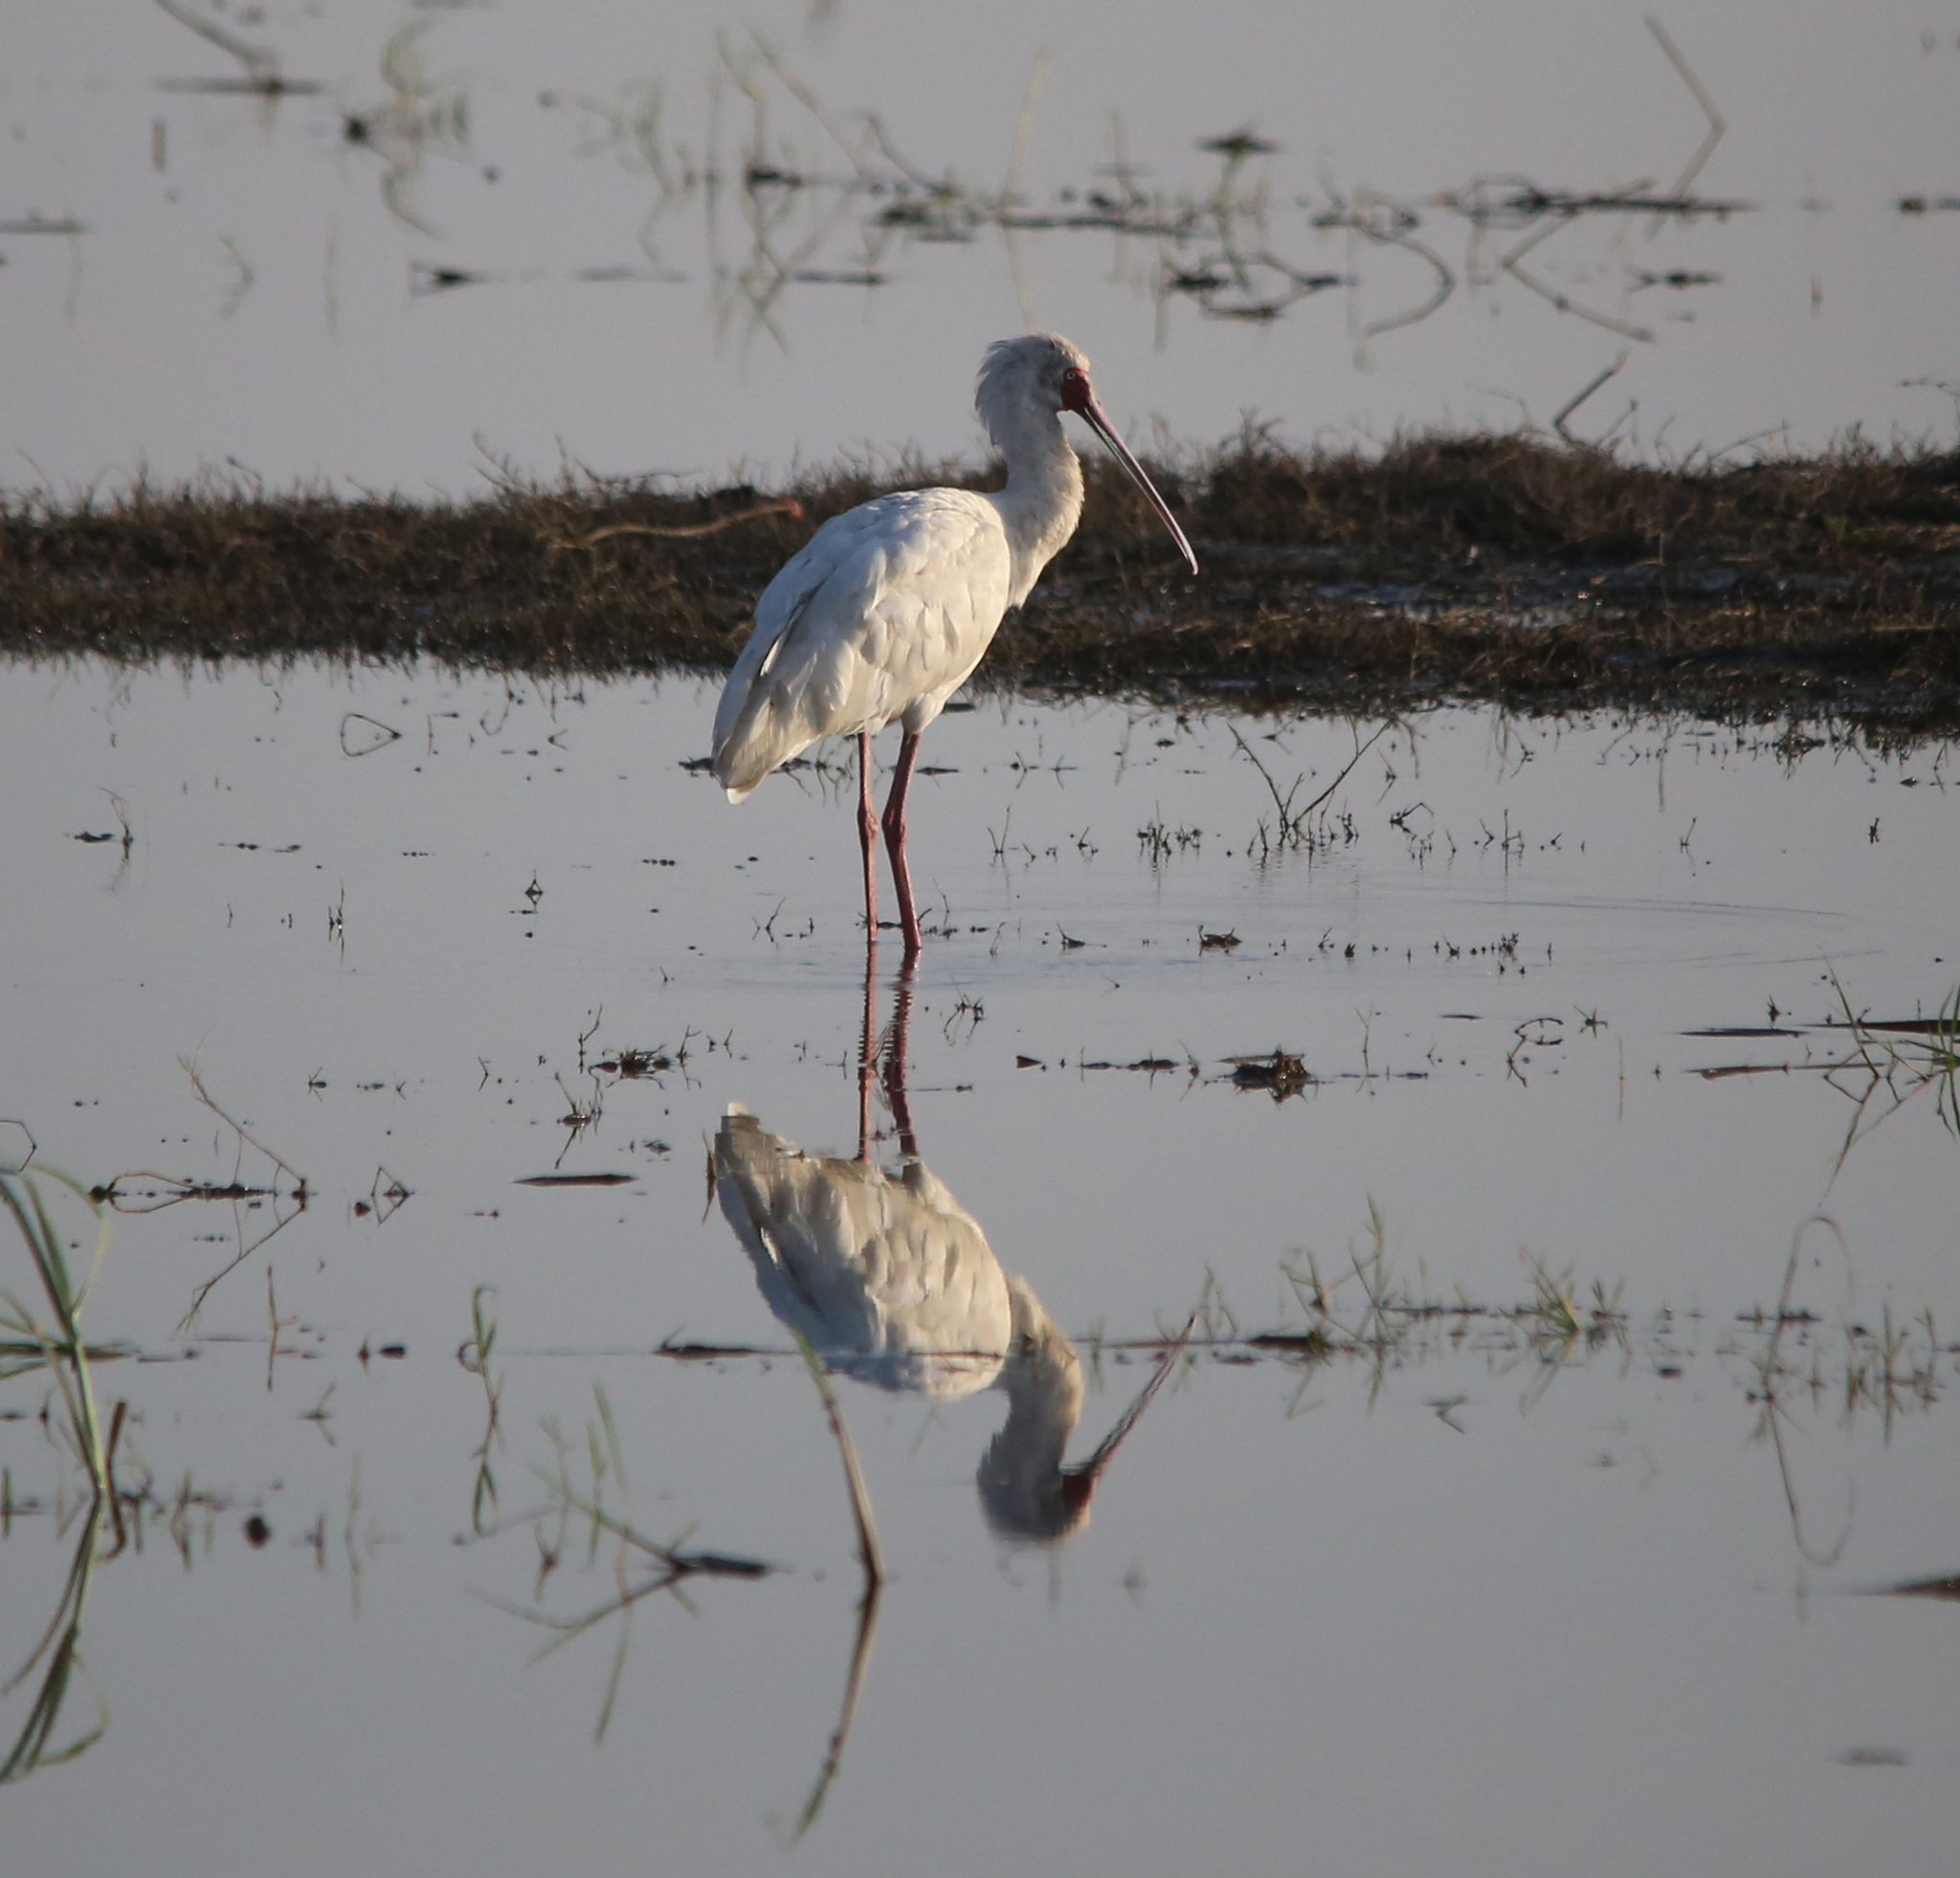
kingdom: Animalia
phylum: Chordata
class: Aves
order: Pelecaniformes
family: Threskiornithidae
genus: Platalea
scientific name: Platalea alba
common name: African spoonbill
